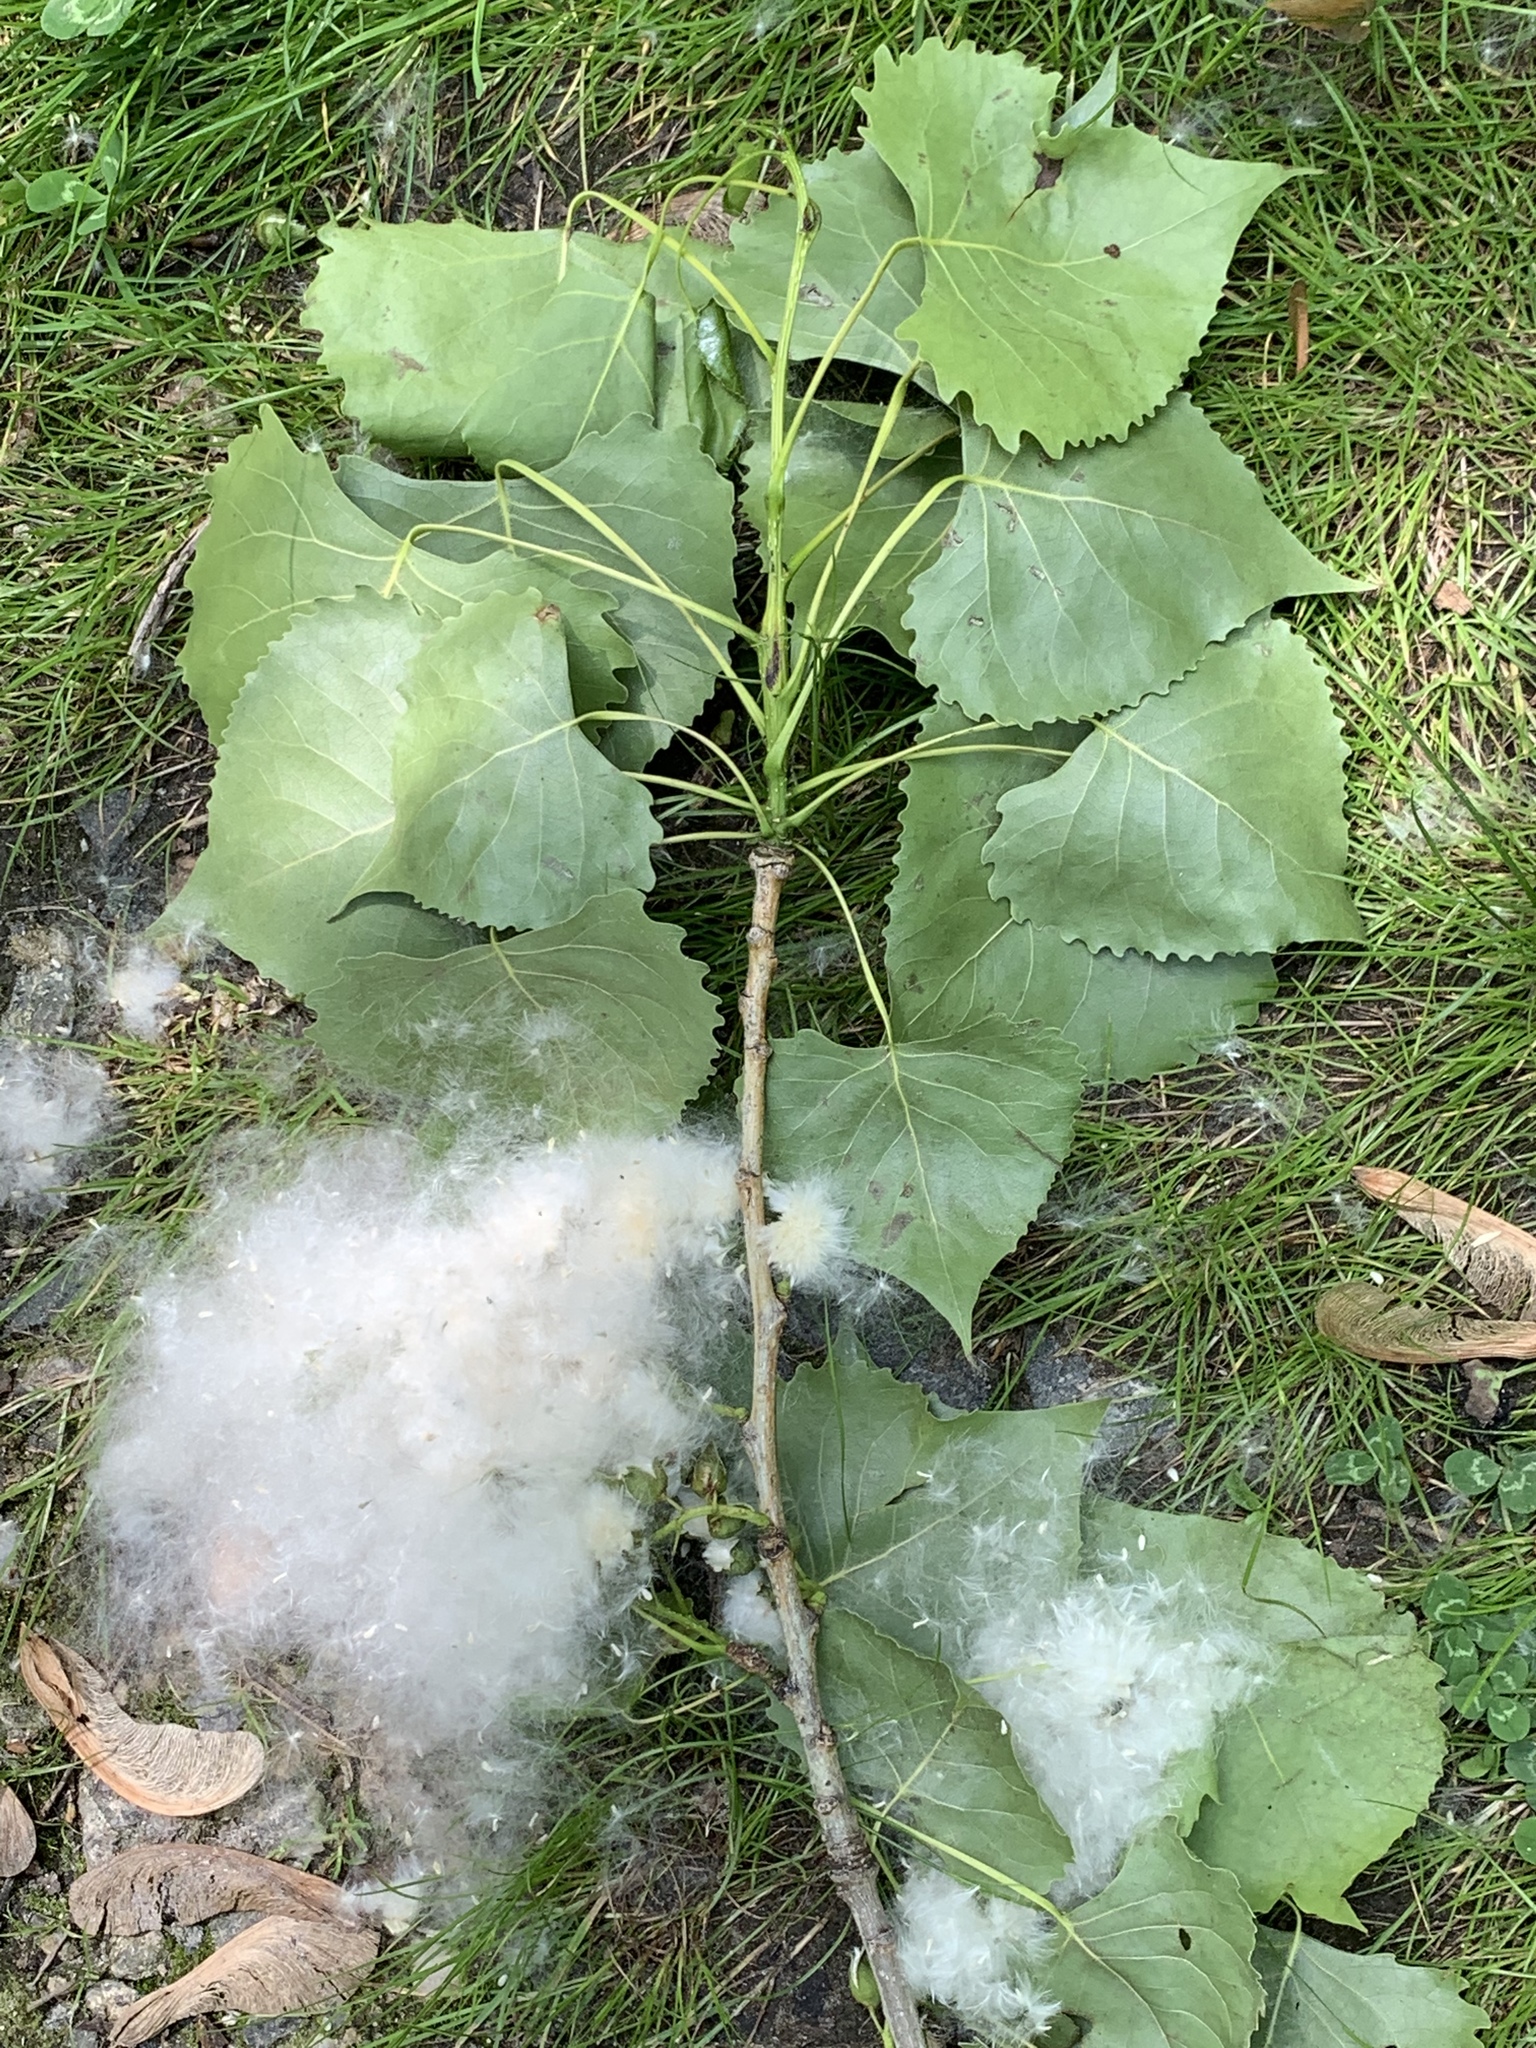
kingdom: Plantae
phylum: Tracheophyta
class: Magnoliopsida
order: Malpighiales
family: Salicaceae
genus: Populus
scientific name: Populus deltoides
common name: Eastern cottonwood
